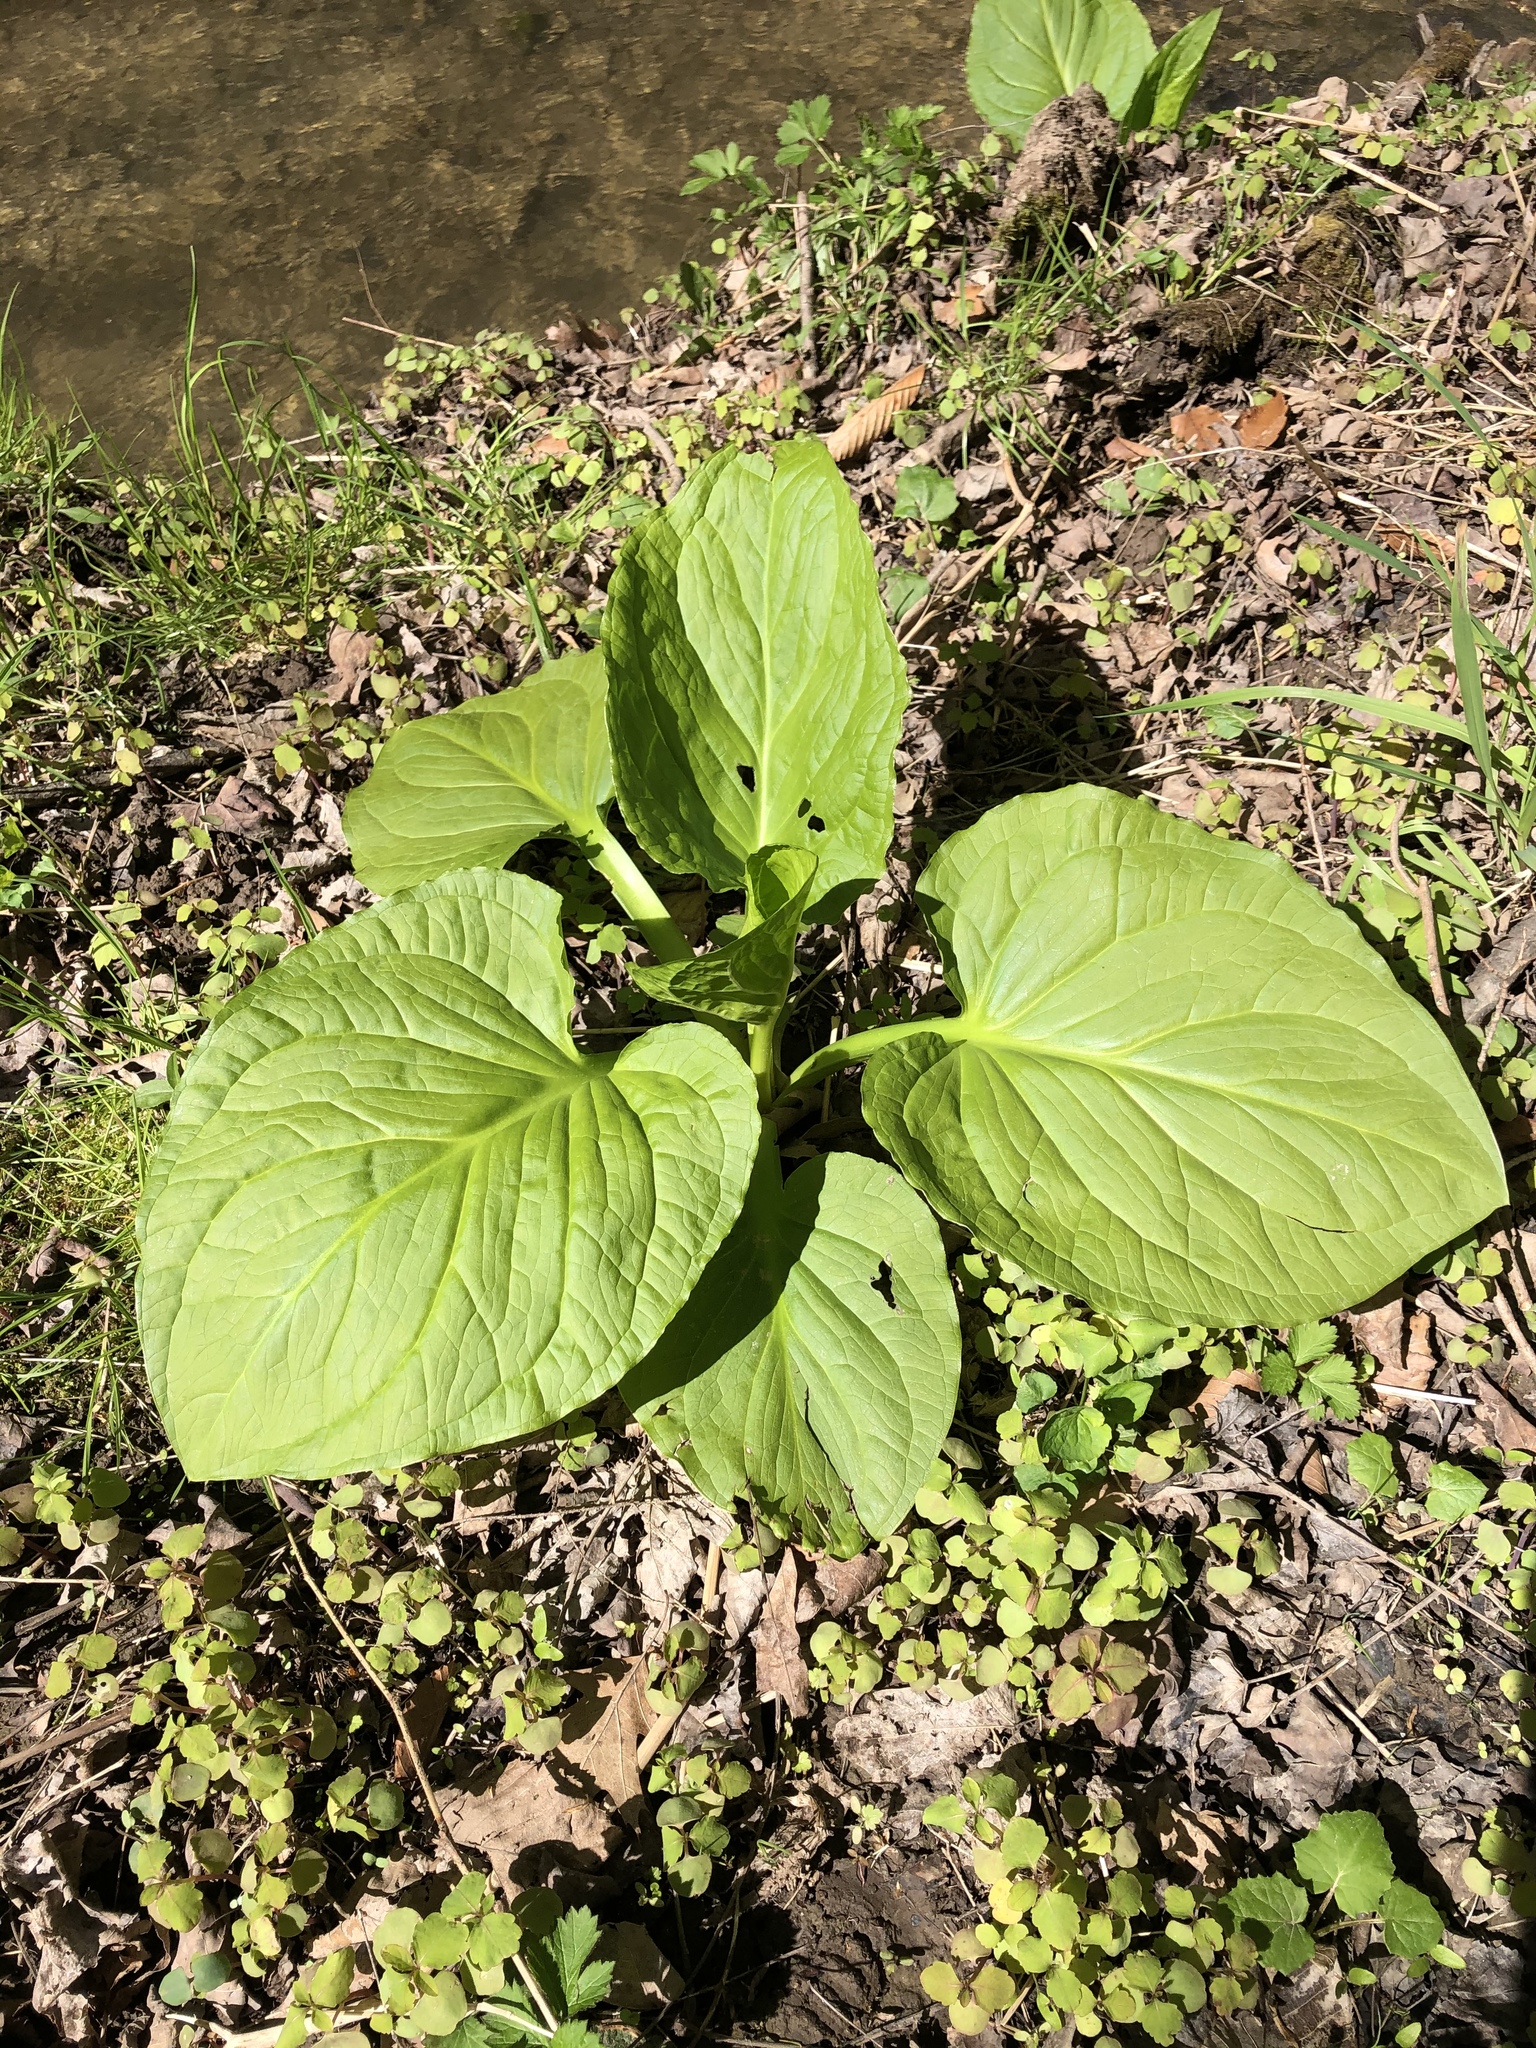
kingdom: Plantae
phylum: Tracheophyta
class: Liliopsida
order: Alismatales
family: Araceae
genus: Symplocarpus
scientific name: Symplocarpus foetidus
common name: Eastern skunk cabbage
